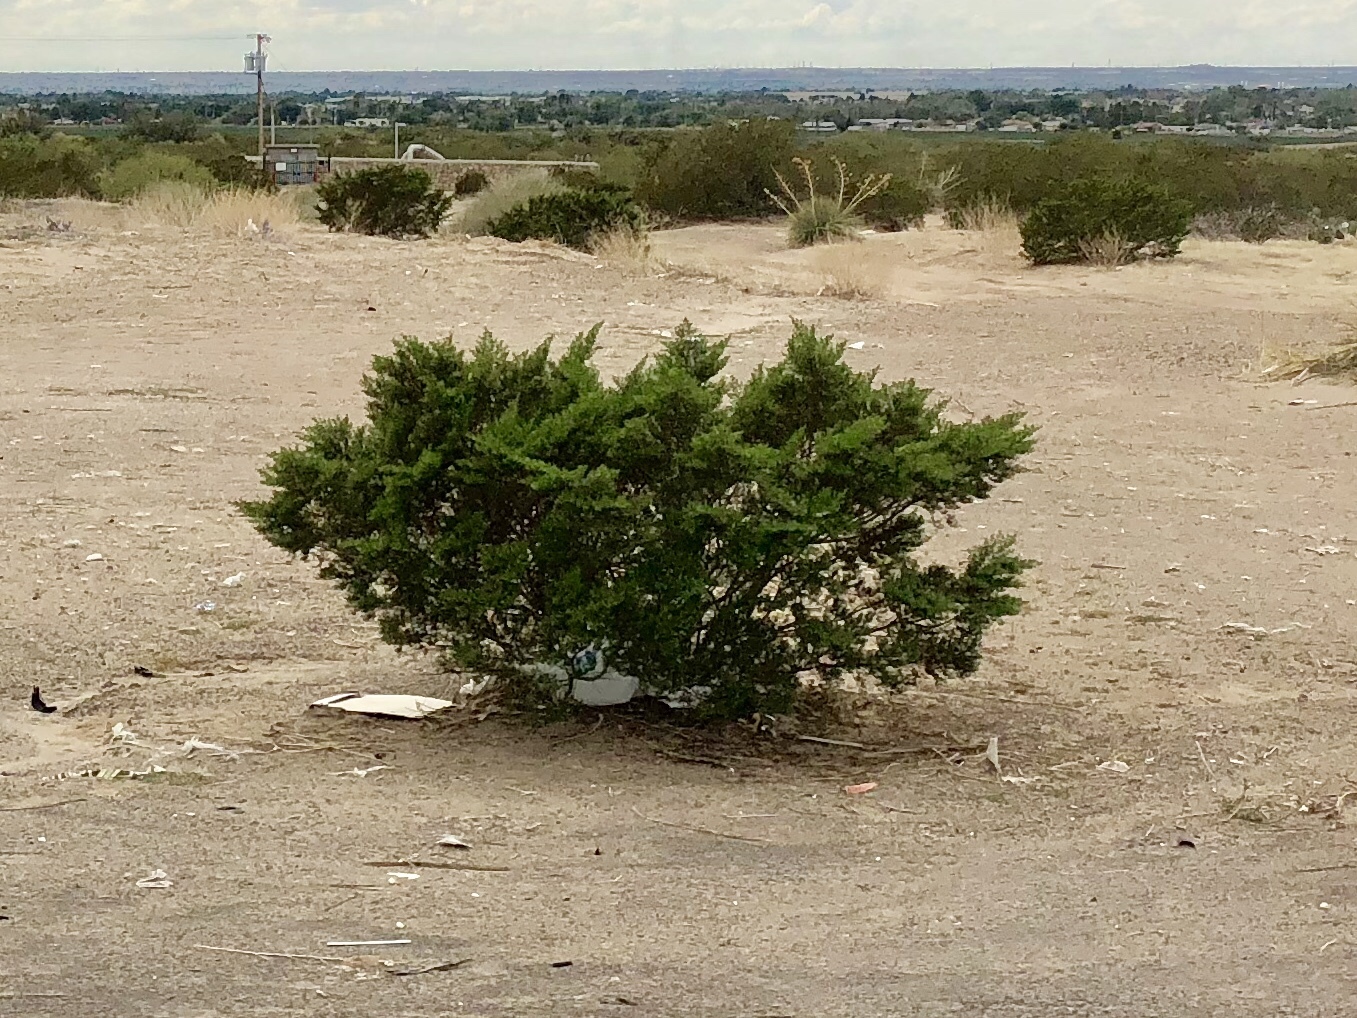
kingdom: Plantae
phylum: Tracheophyta
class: Magnoliopsida
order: Zygophyllales
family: Zygophyllaceae
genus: Larrea
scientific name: Larrea tridentata
